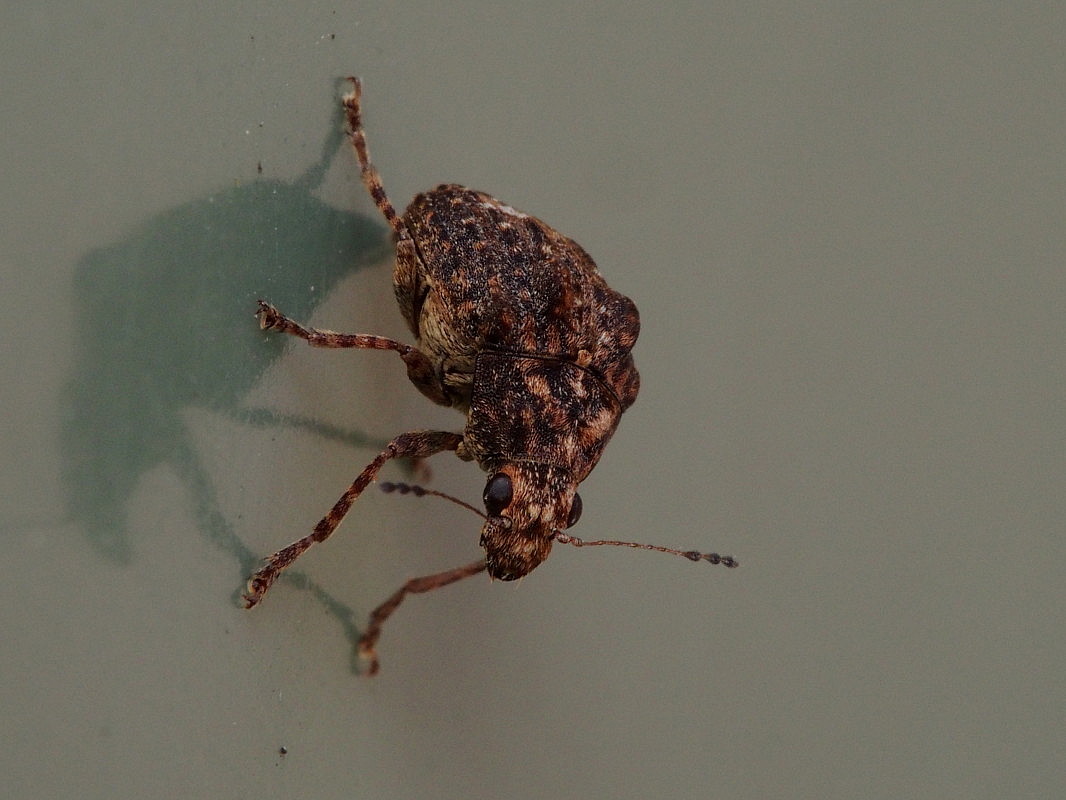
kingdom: Animalia
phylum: Arthropoda
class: Insecta
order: Coleoptera
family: Anthribidae
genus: Araecerus
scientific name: Araecerus
